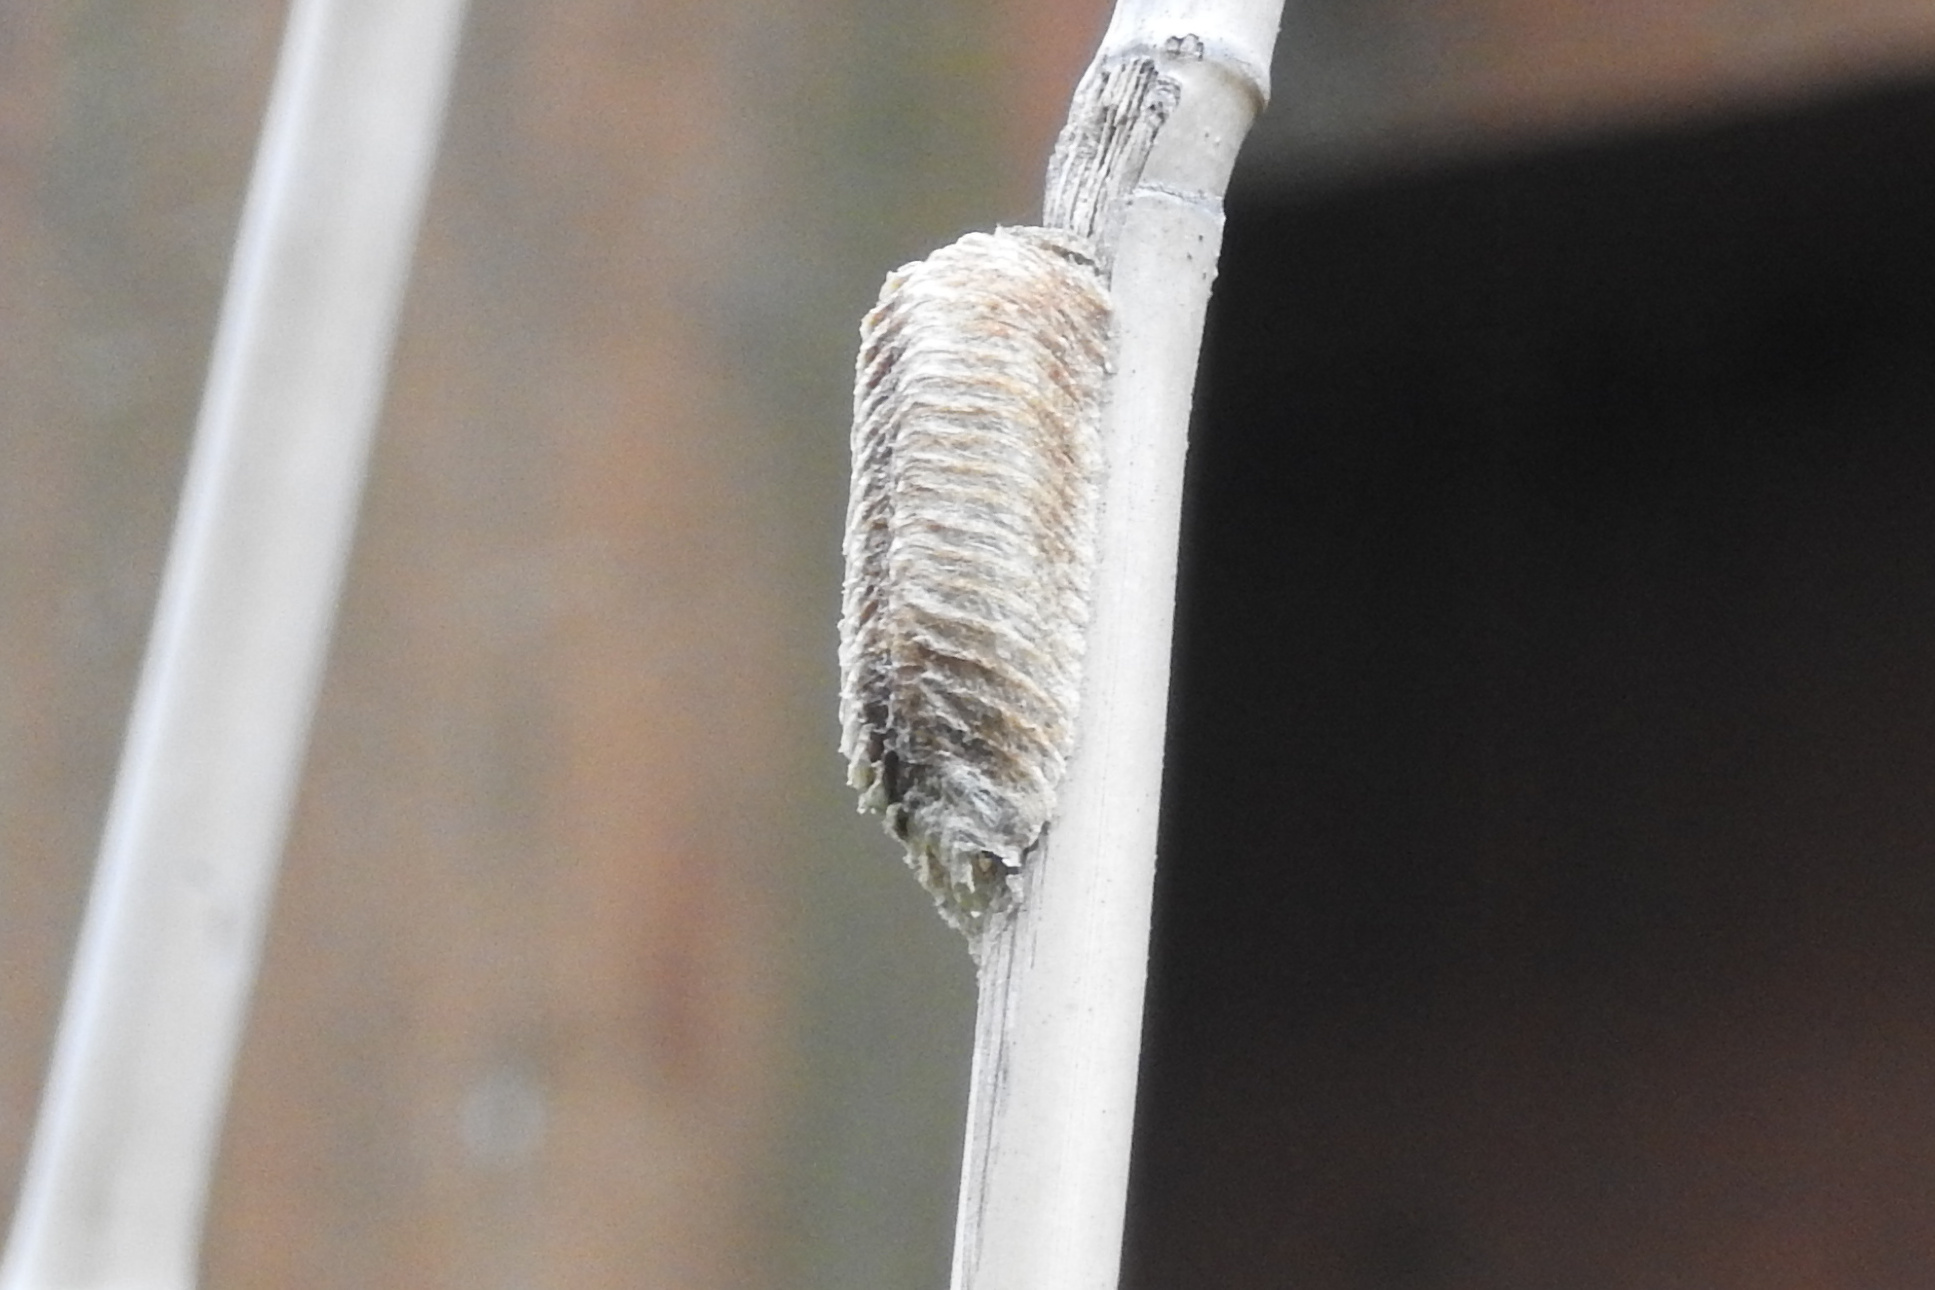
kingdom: Animalia
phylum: Arthropoda
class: Insecta
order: Mantodea
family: Mantidae
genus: Stagmomantis
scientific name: Stagmomantis carolina
